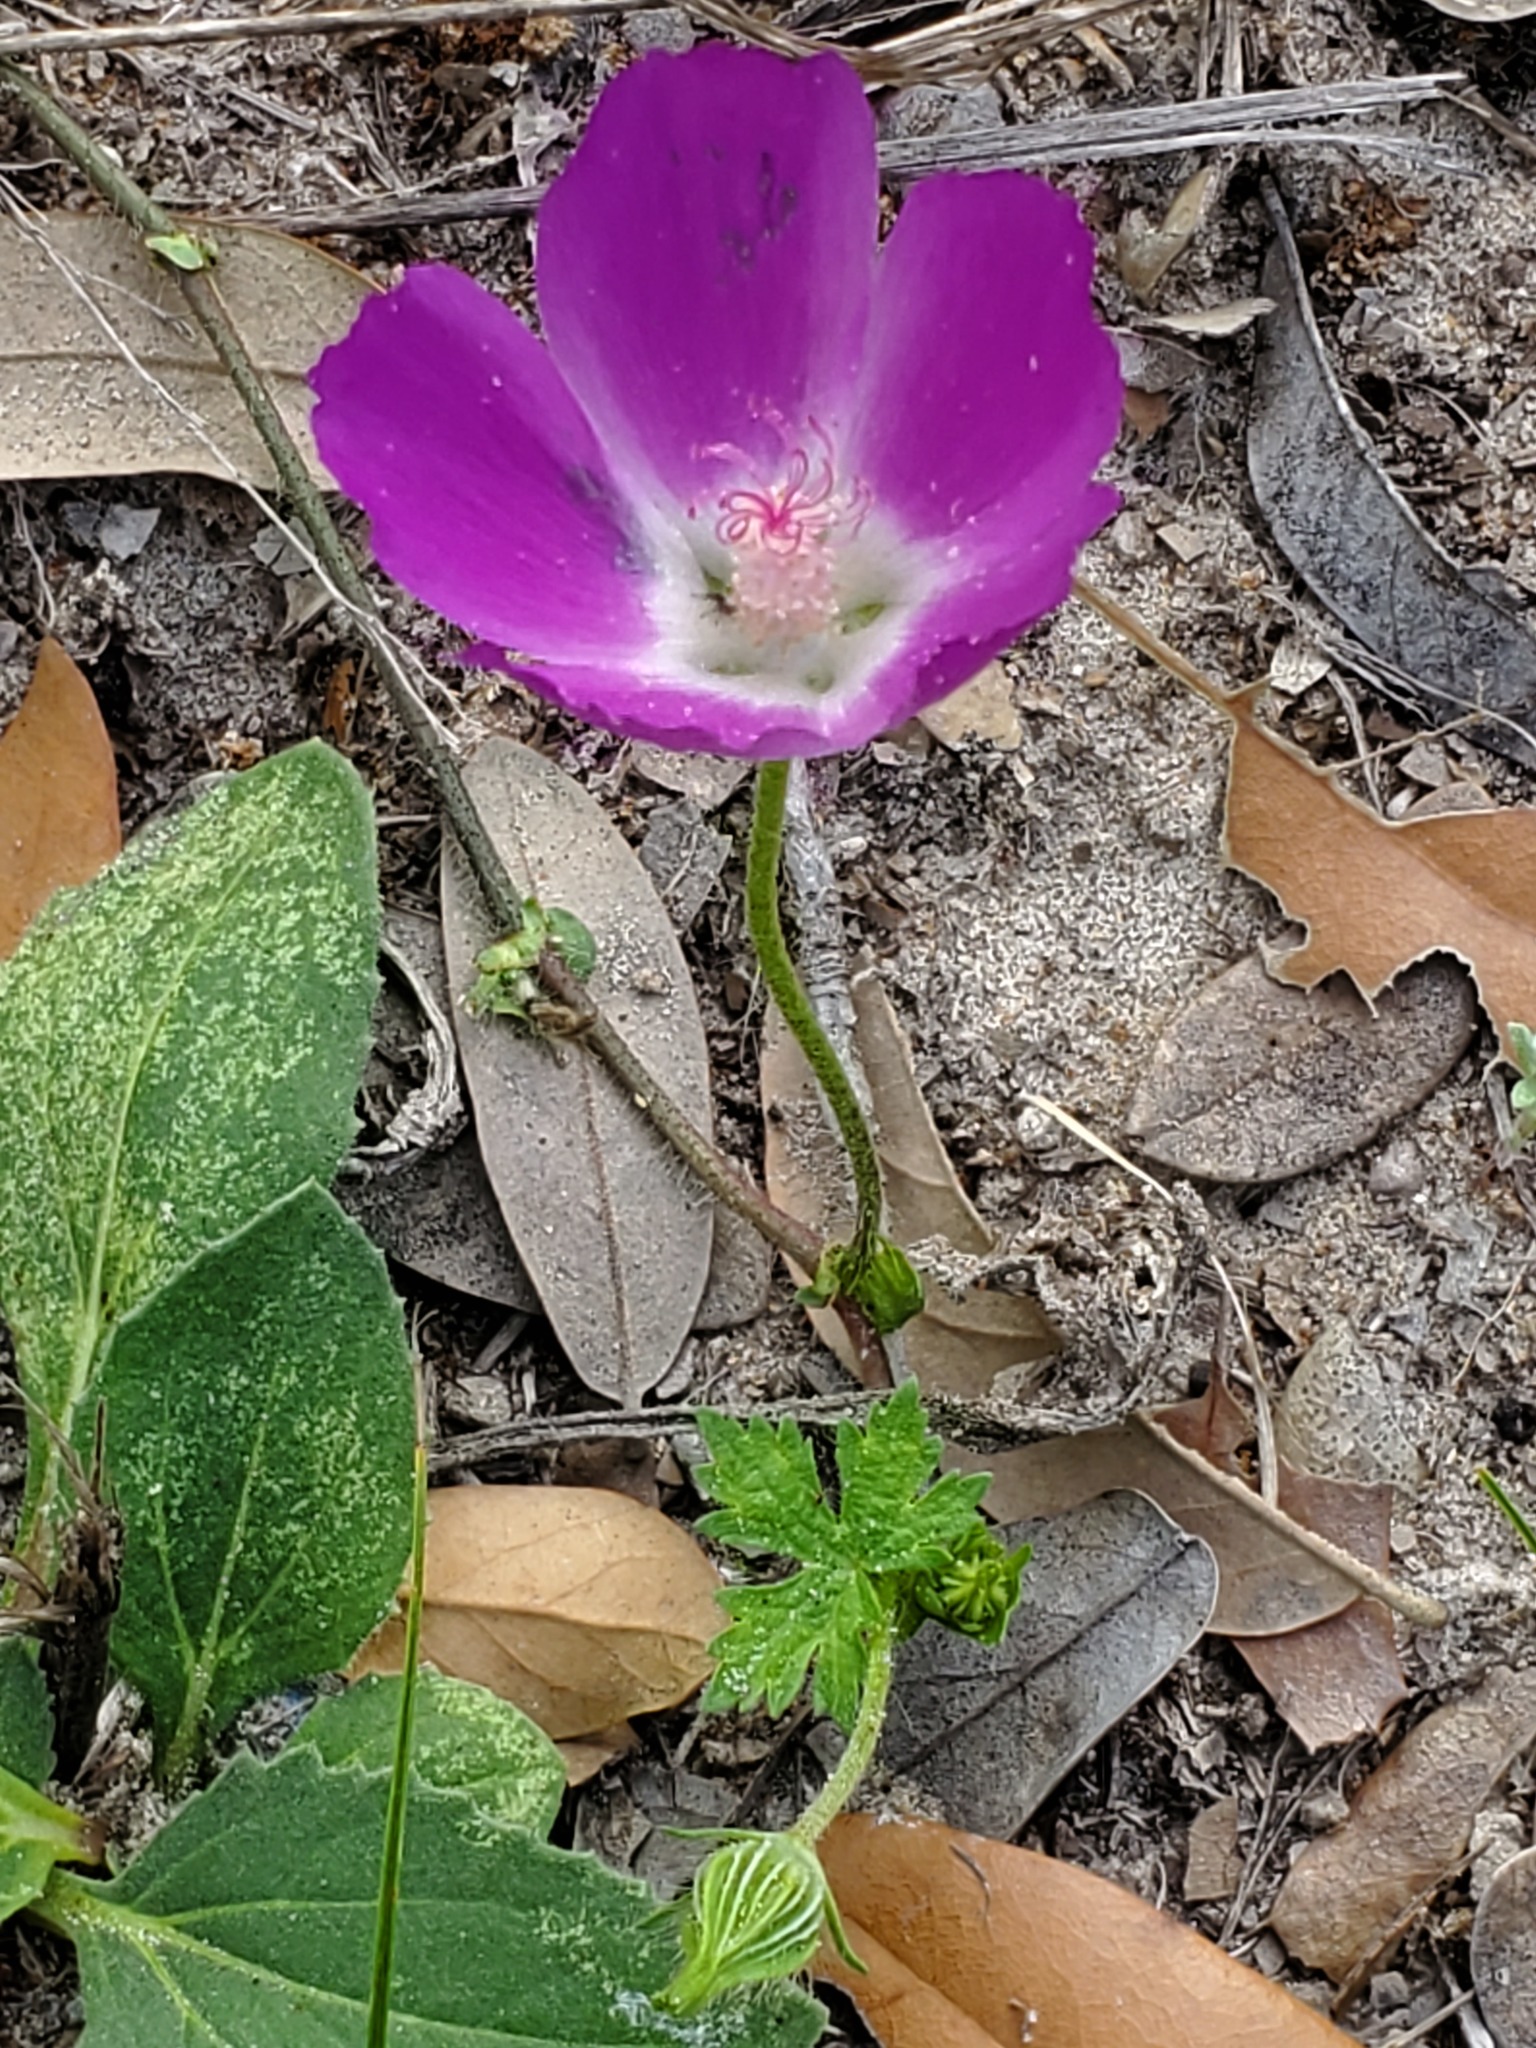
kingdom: Plantae
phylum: Tracheophyta
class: Magnoliopsida
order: Malvales
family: Malvaceae
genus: Callirhoe
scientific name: Callirhoe involucrata
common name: Purple poppy-mallow
